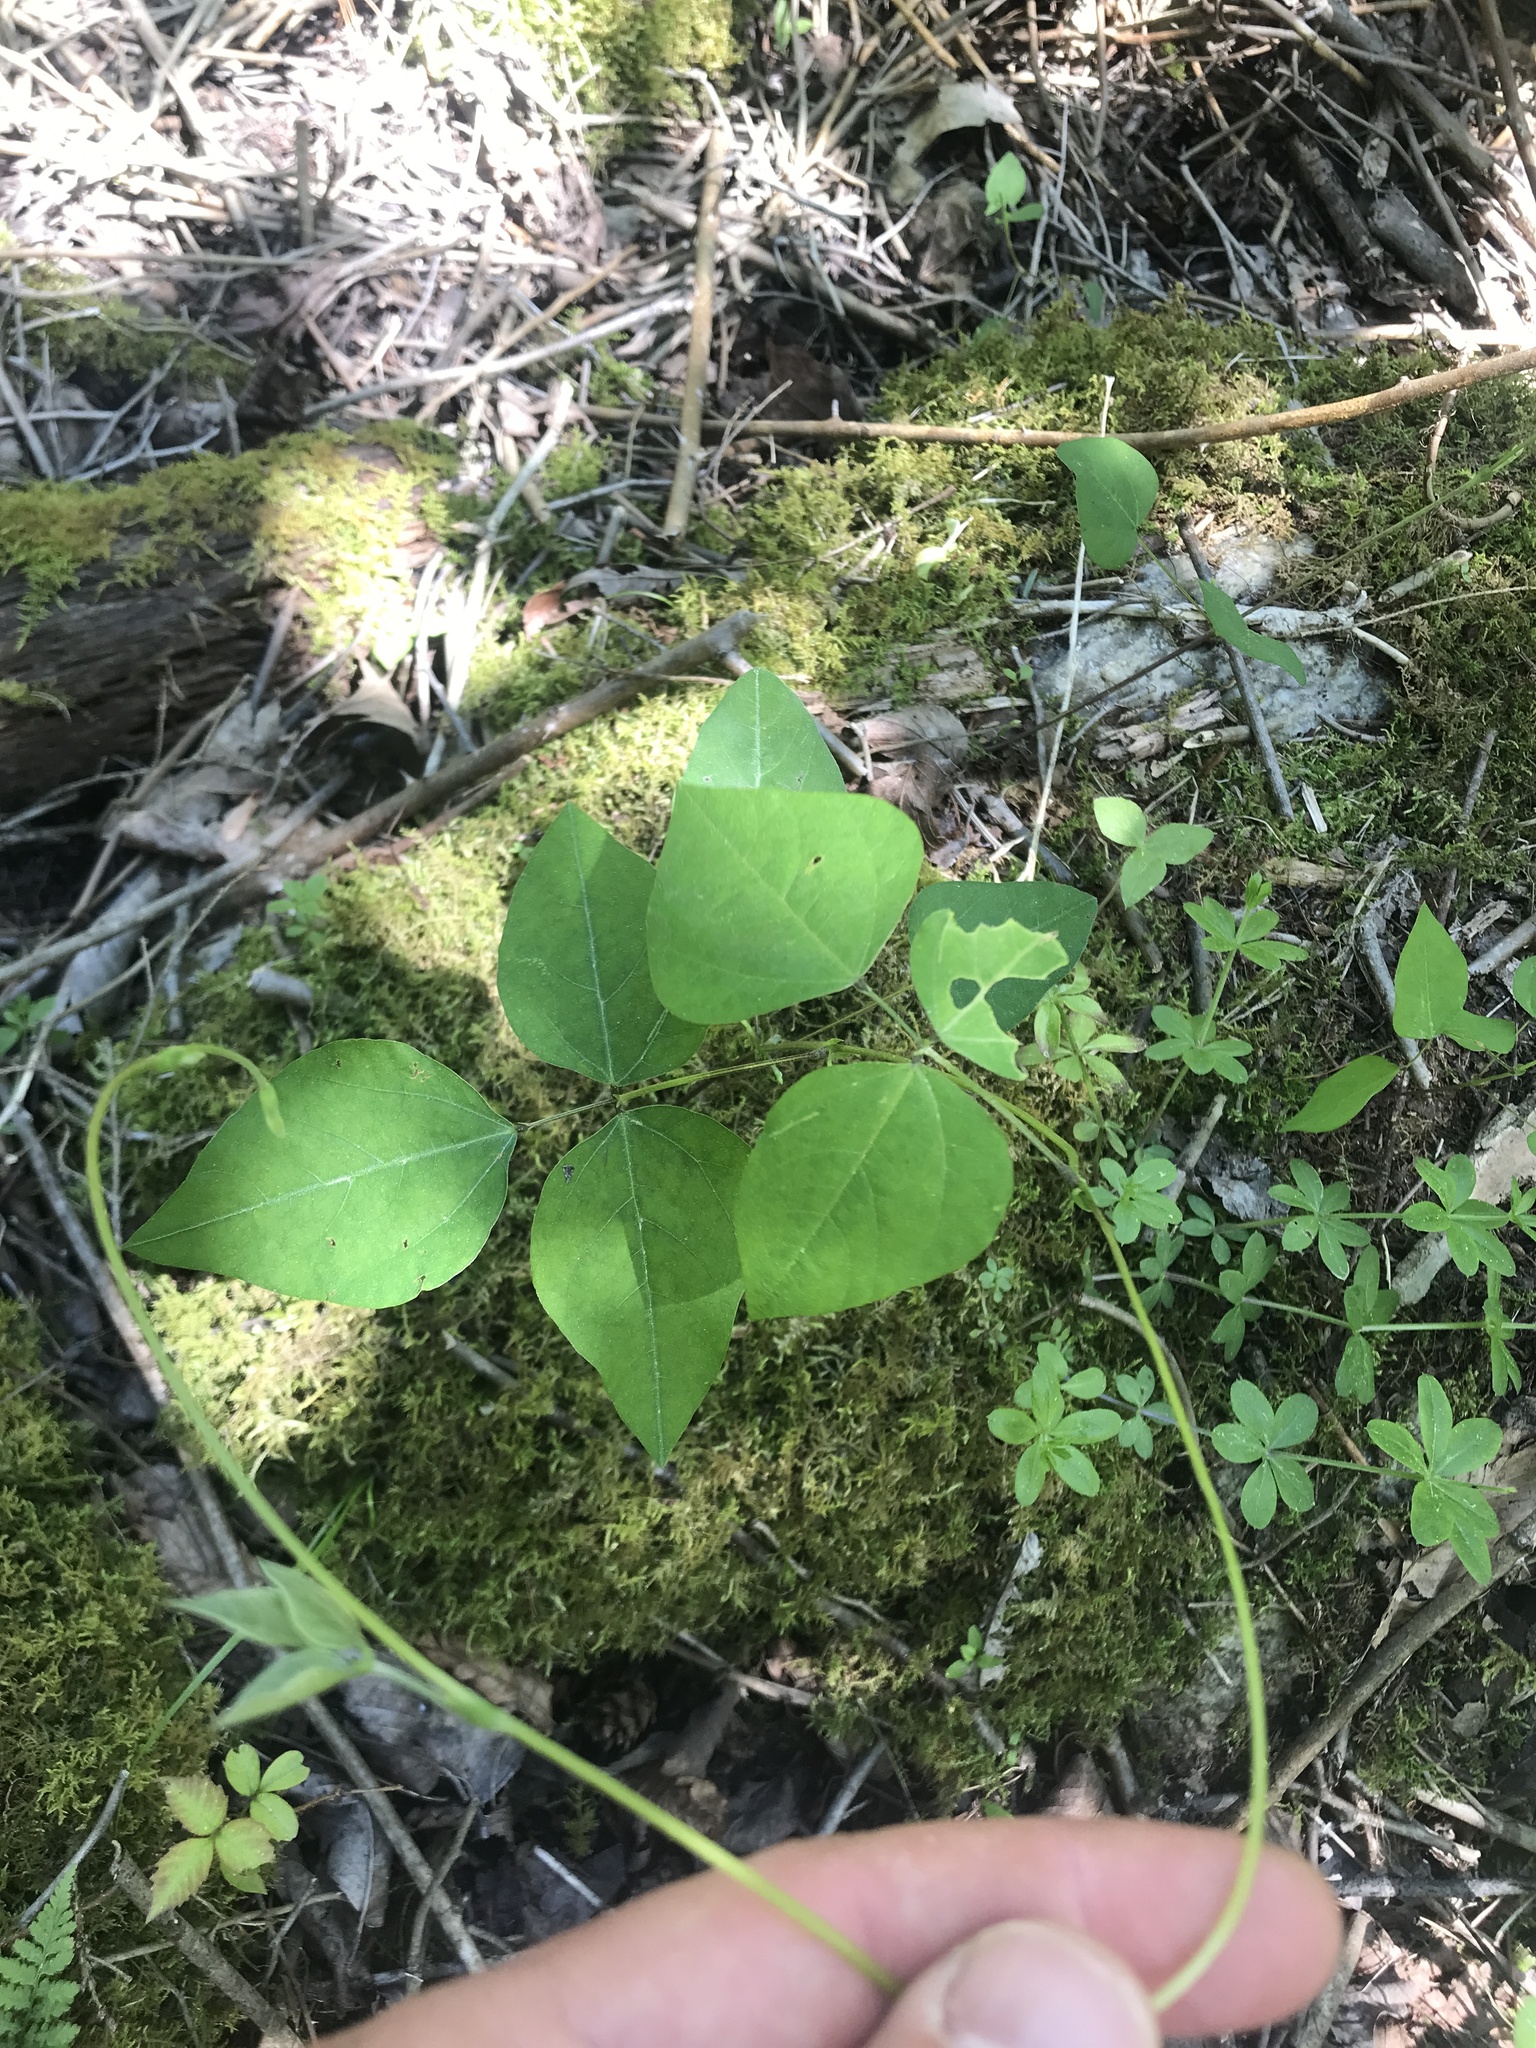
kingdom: Plantae
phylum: Tracheophyta
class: Magnoliopsida
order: Fabales
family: Fabaceae
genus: Amphicarpaea
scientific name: Amphicarpaea bracteata
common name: American hog peanut
